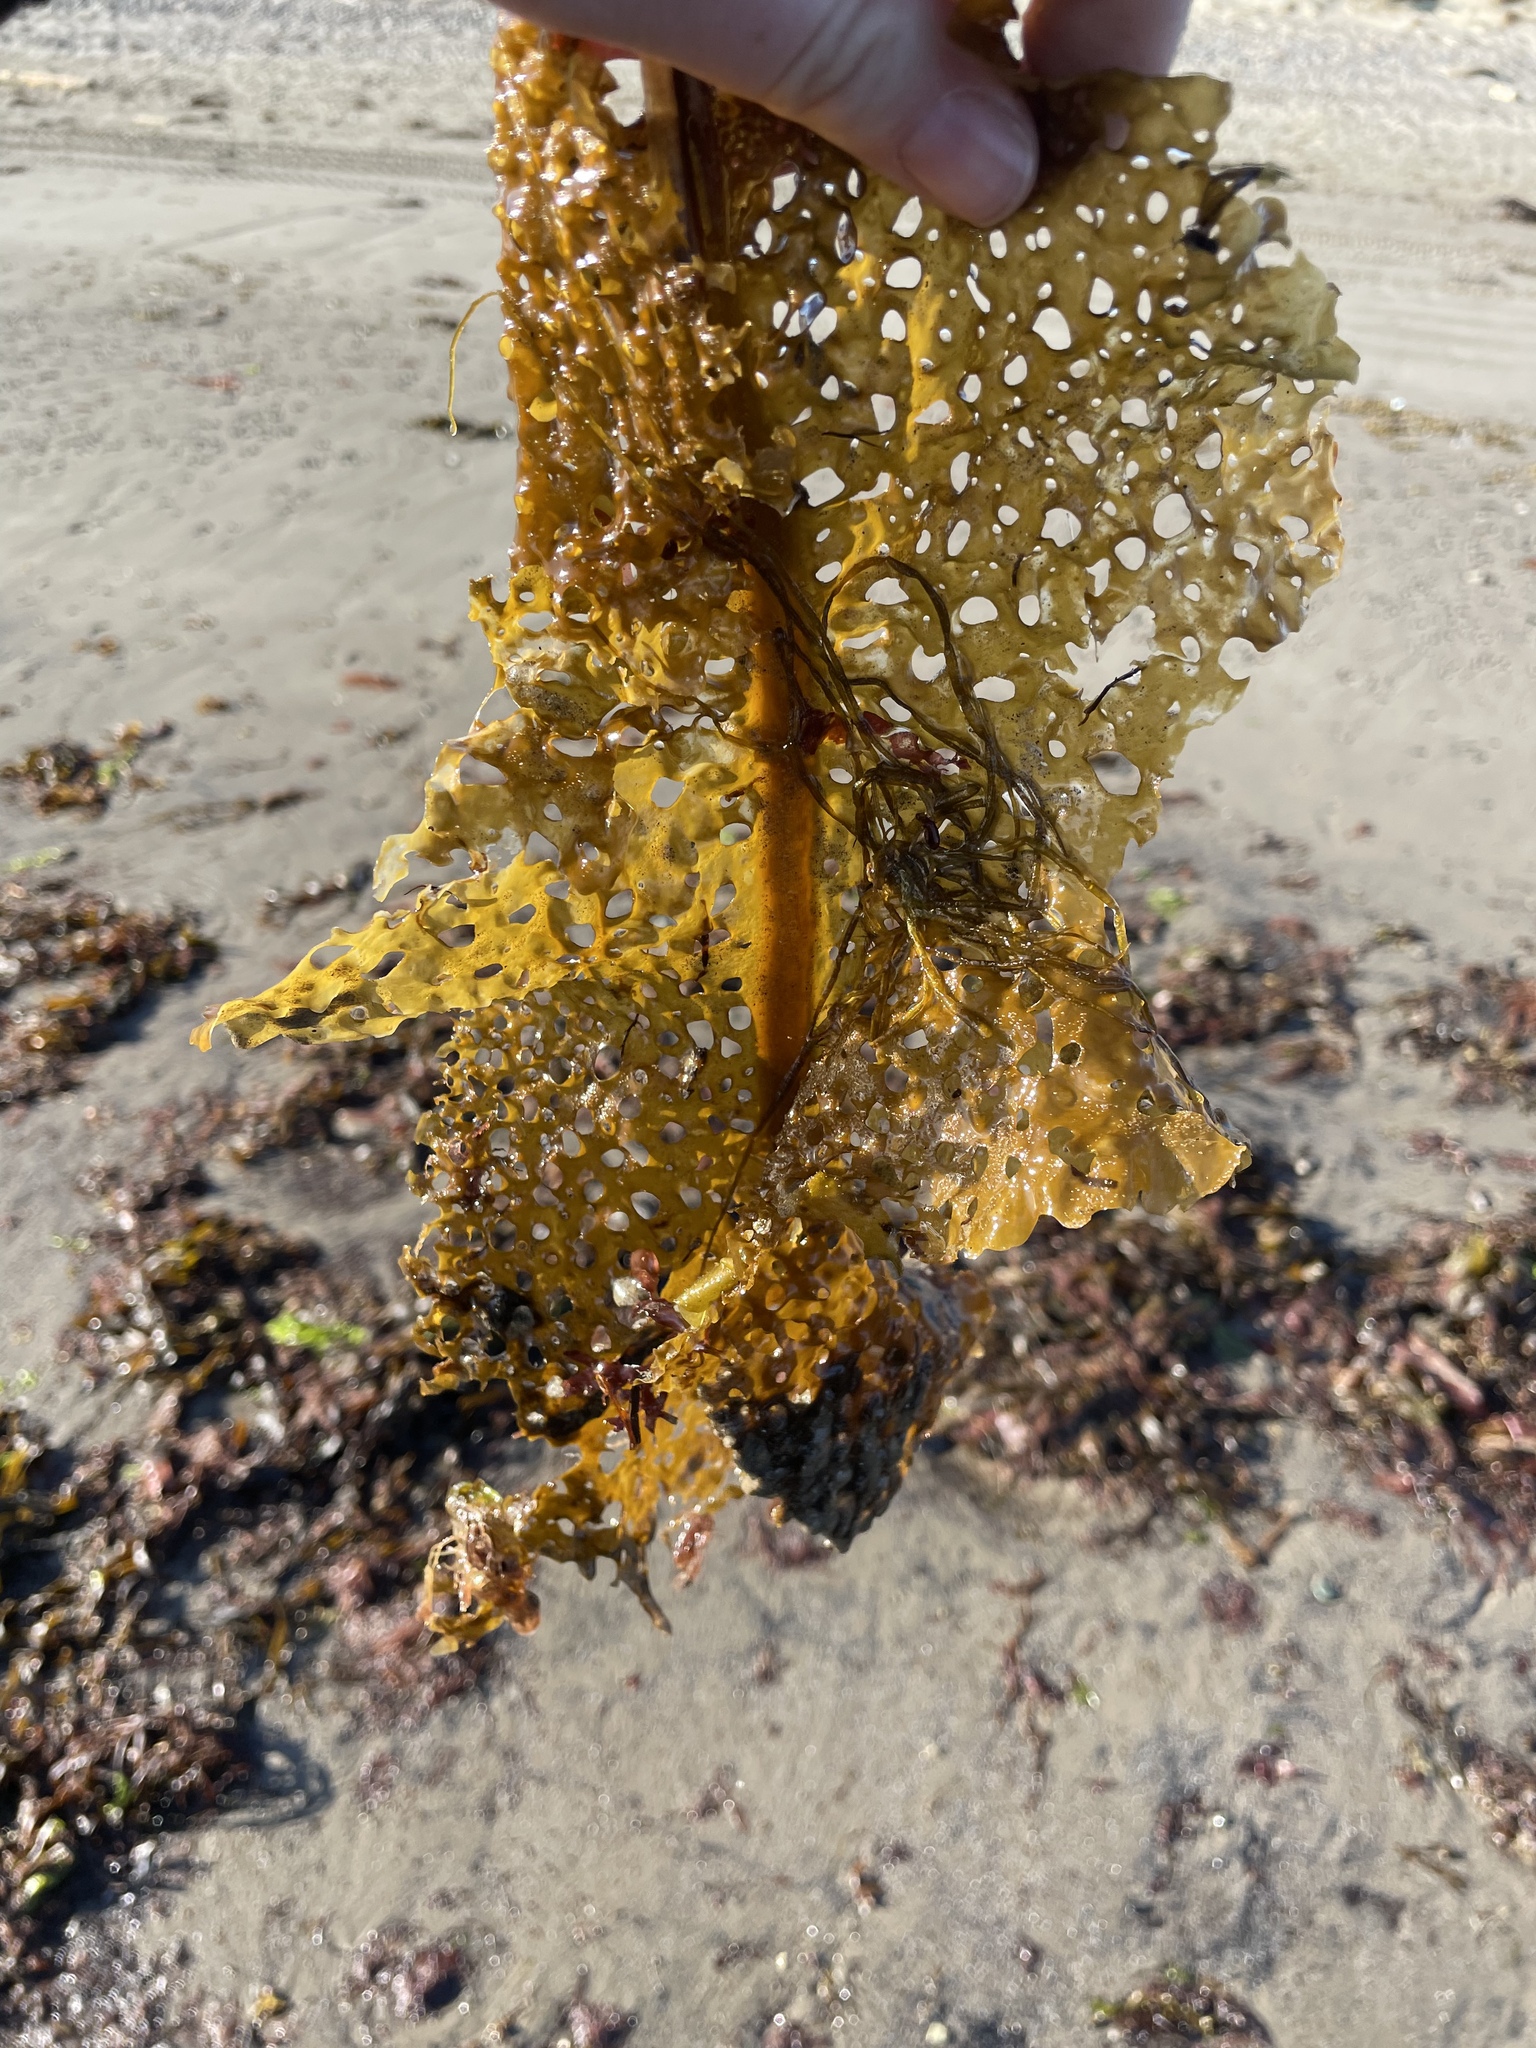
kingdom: Chromista
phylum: Ochrophyta
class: Phaeophyceae
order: Laminariales
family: Costariaceae
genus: Agarum
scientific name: Agarum clathratum
